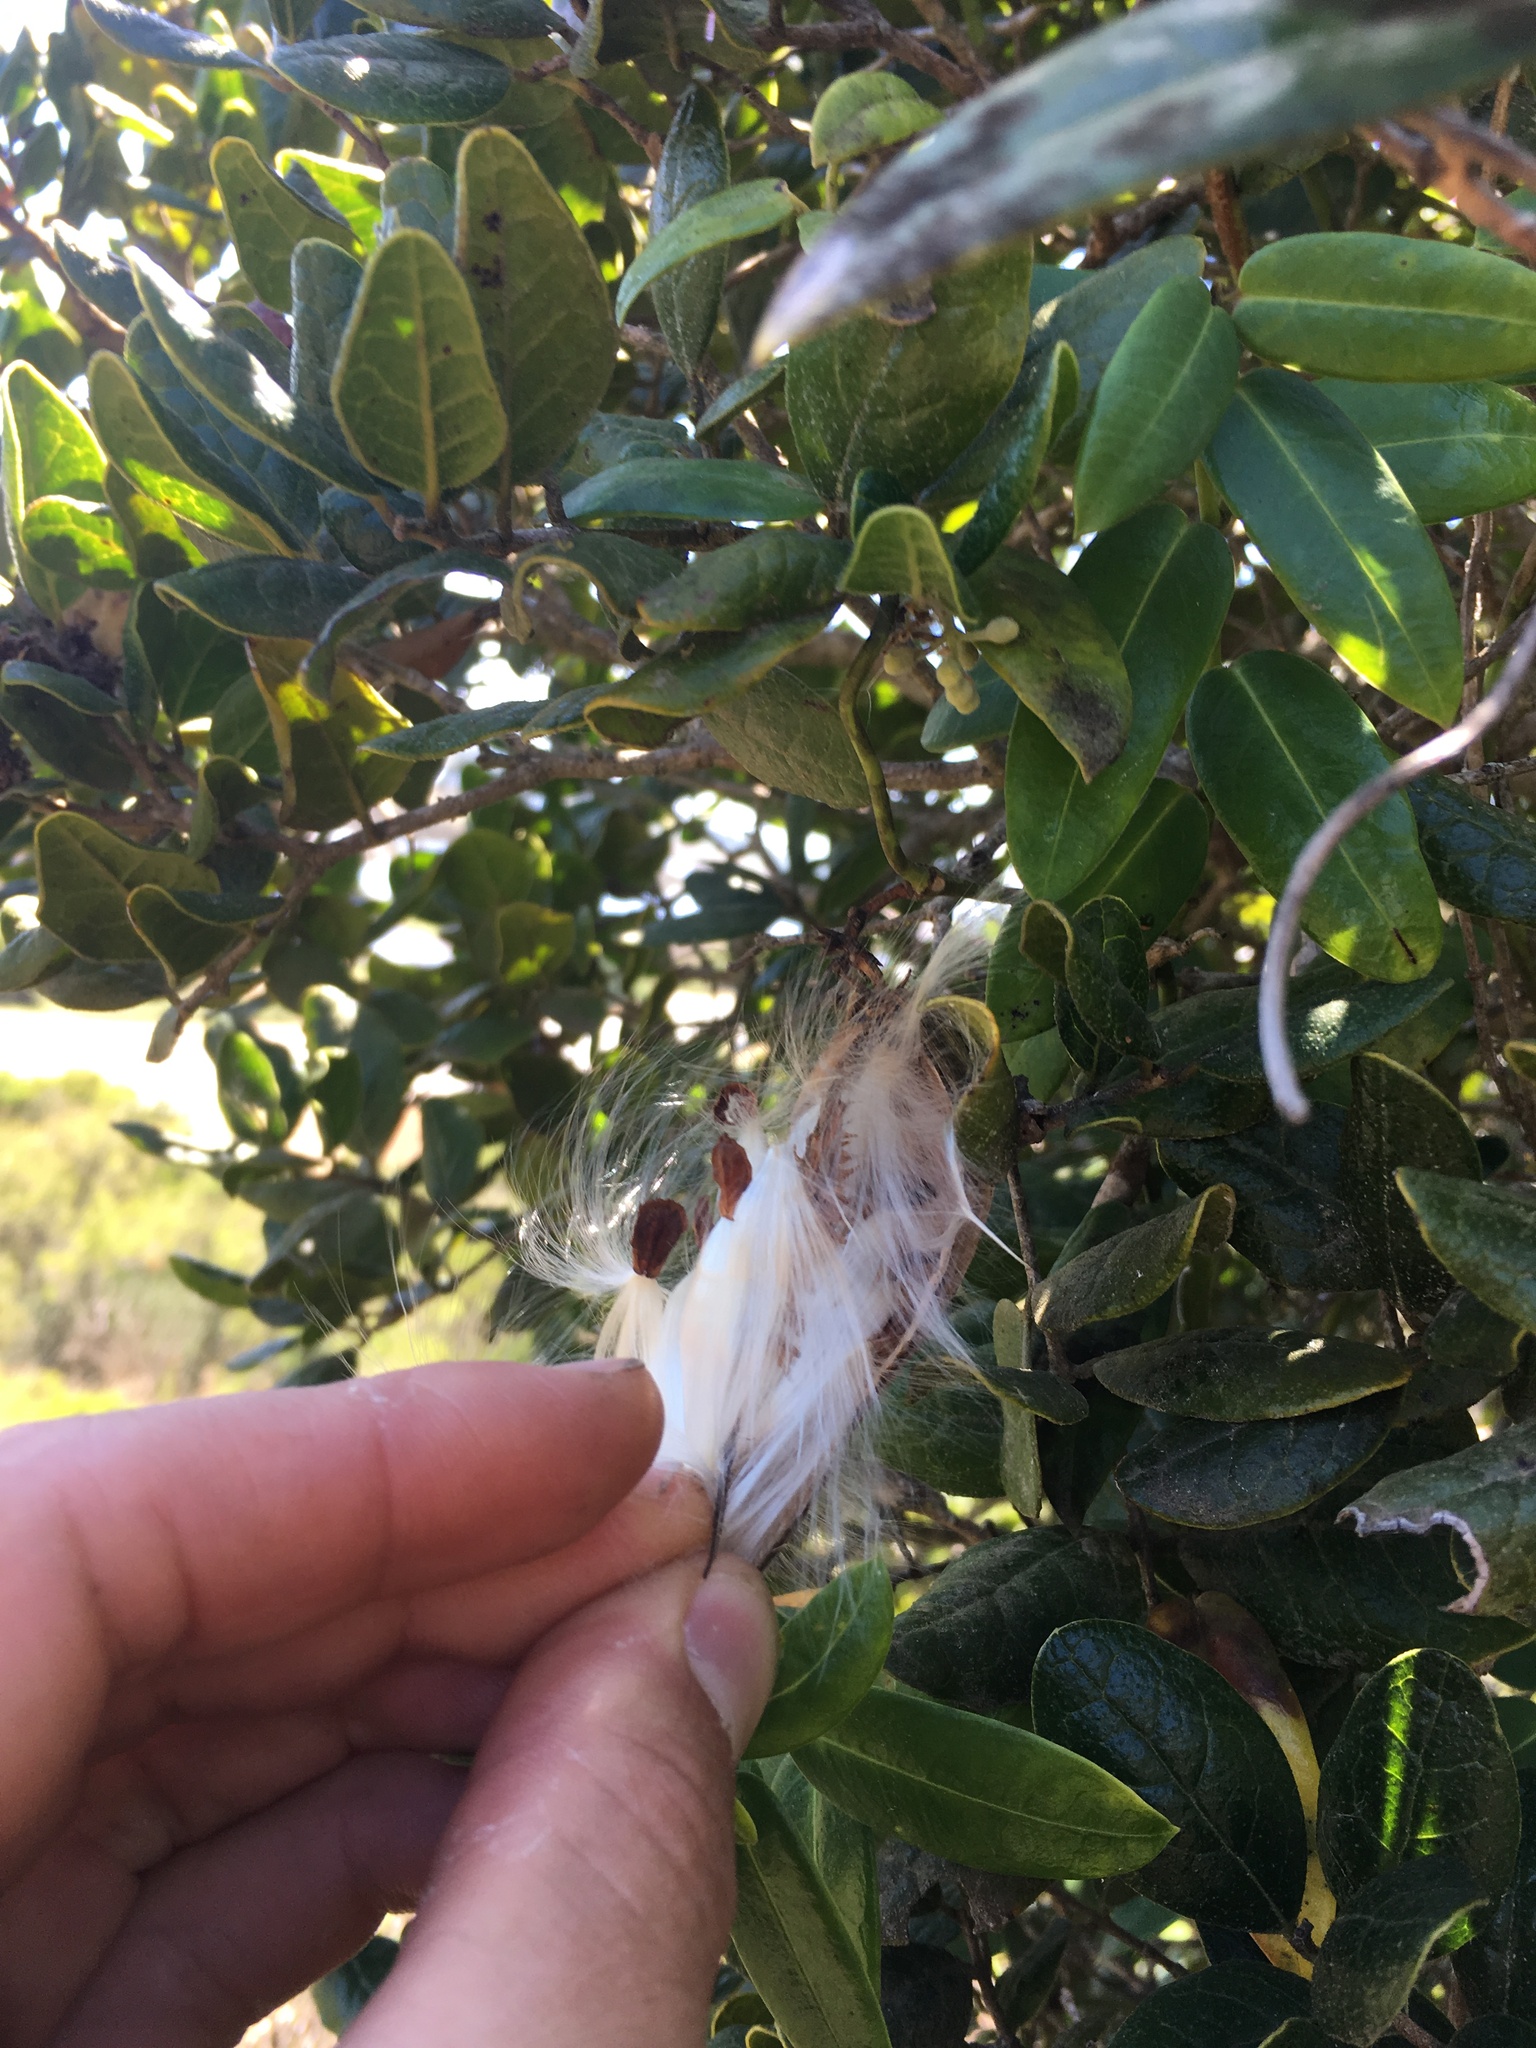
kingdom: Plantae
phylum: Tracheophyta
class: Magnoliopsida
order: Gentianales
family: Apocynaceae
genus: Diplolepis
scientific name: Diplolepis menziesii
